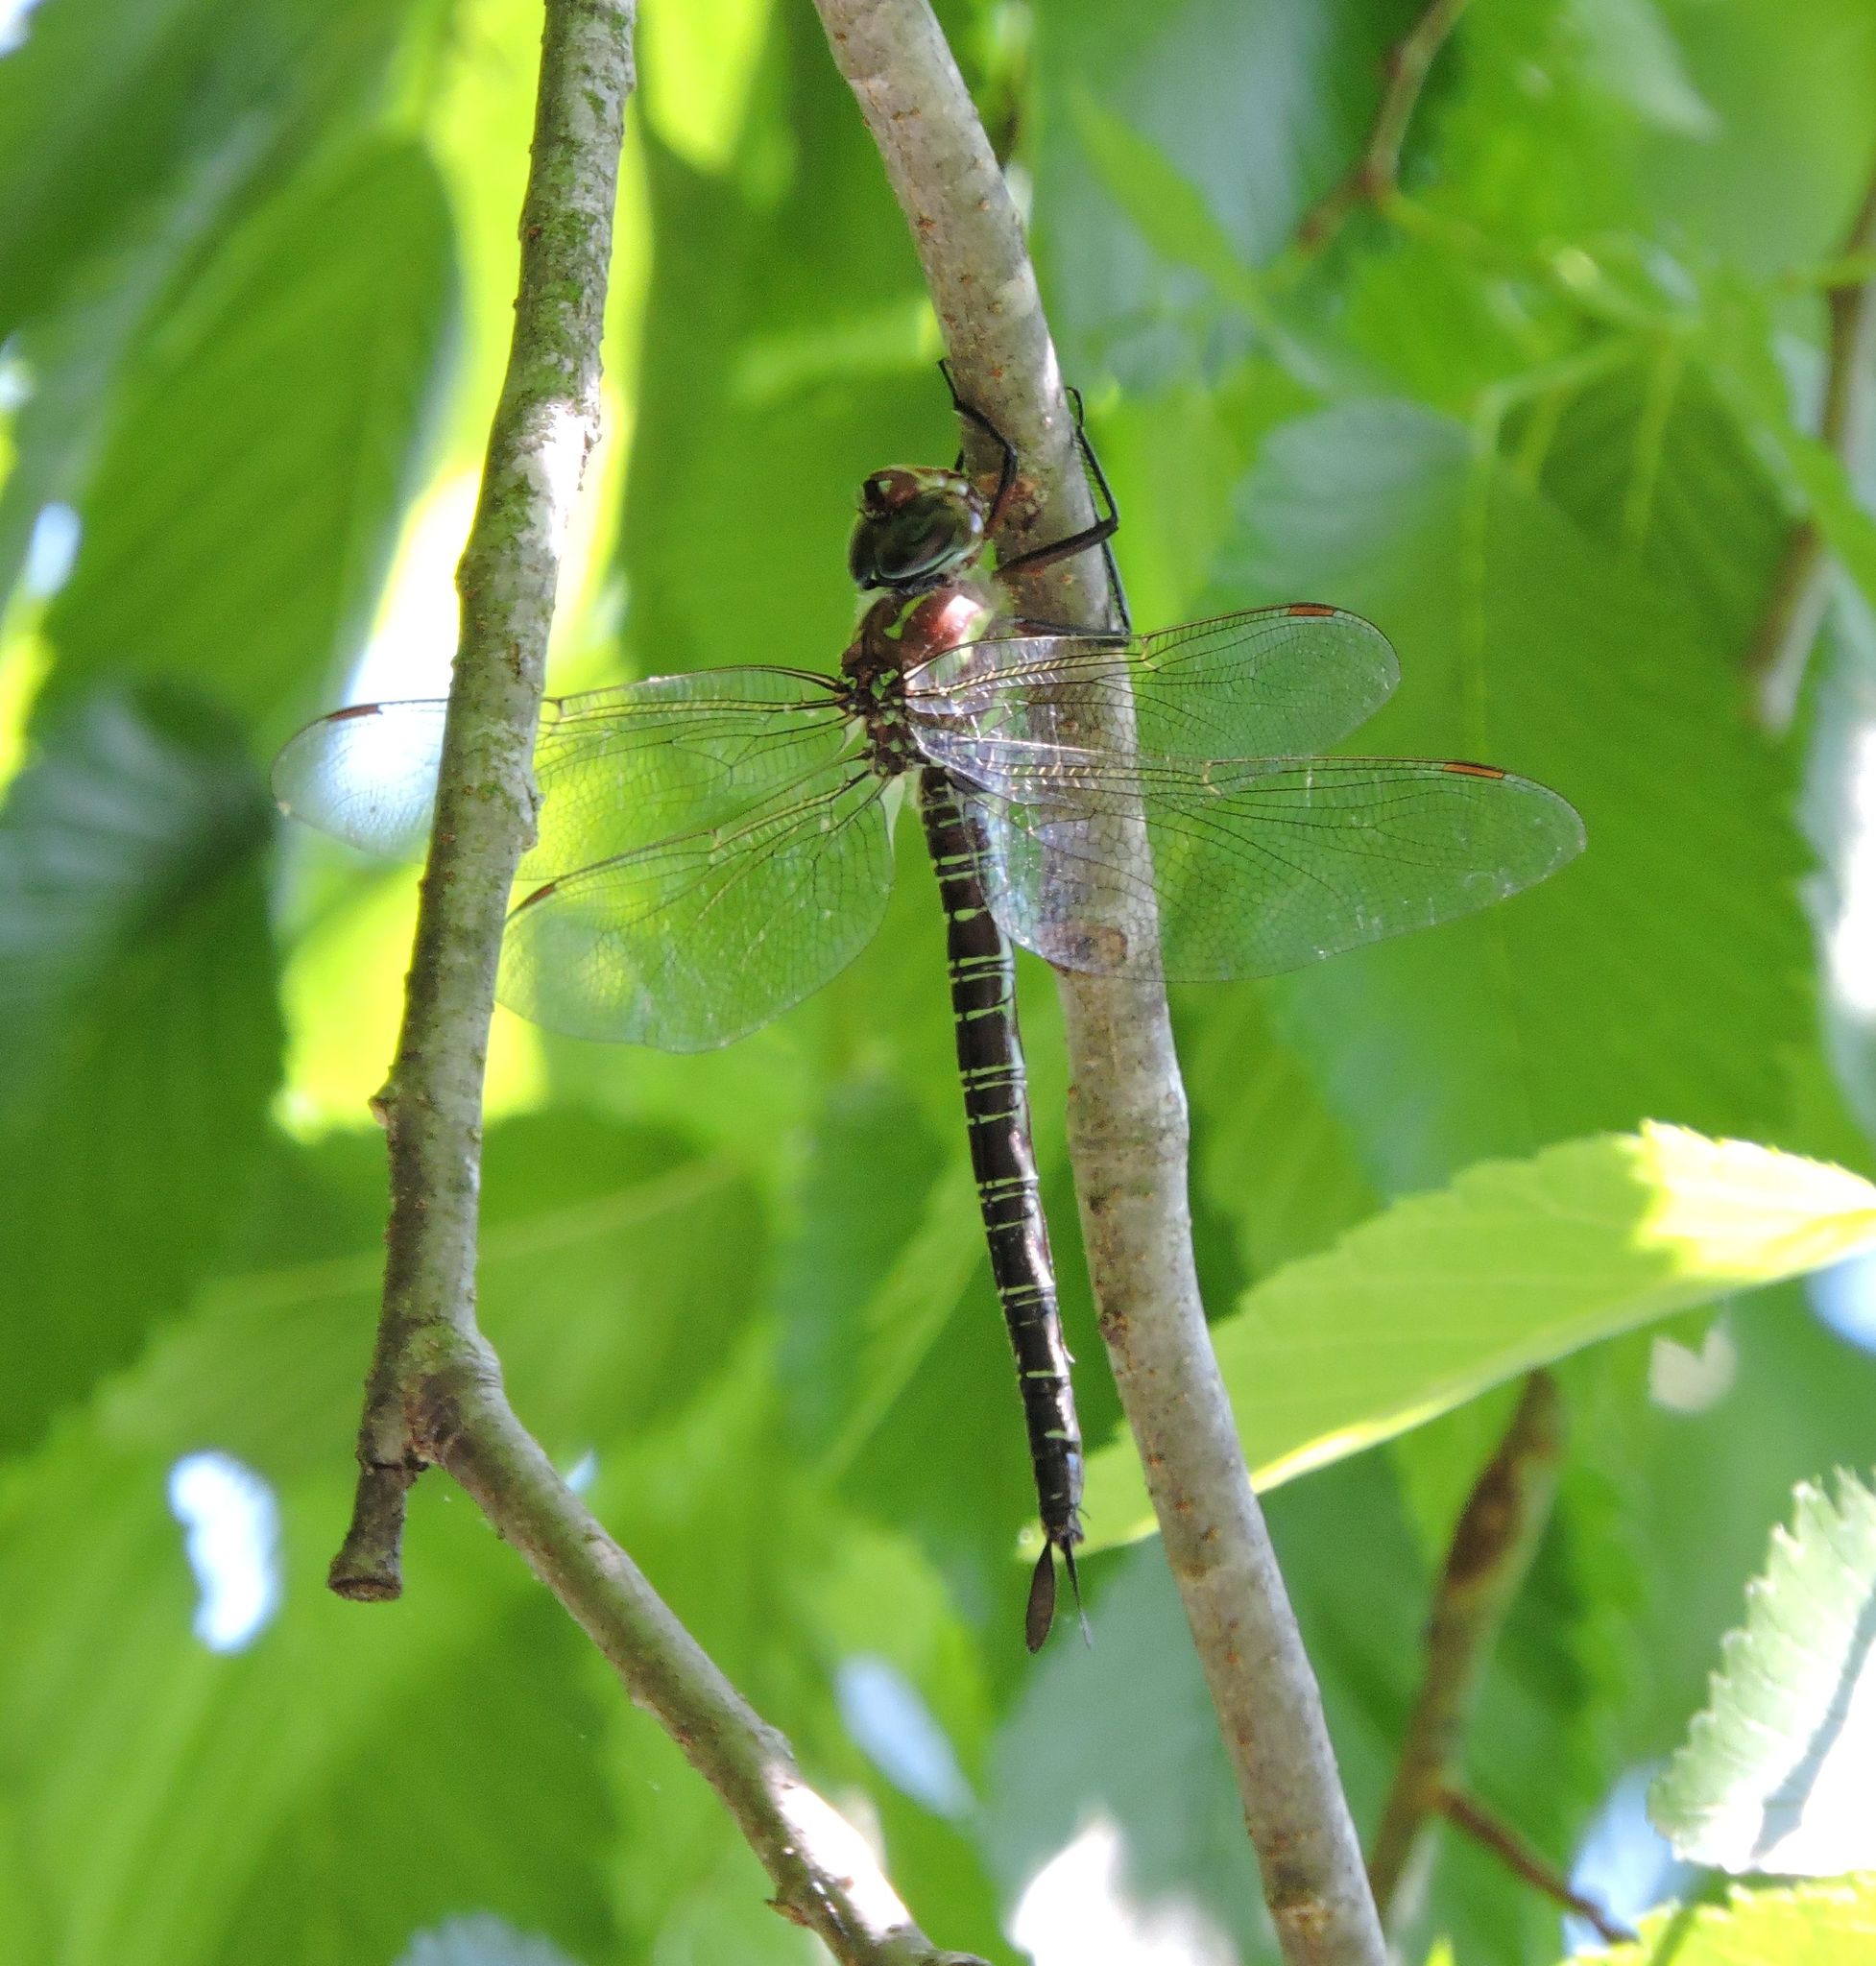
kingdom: Animalia
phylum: Arthropoda
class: Insecta
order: Odonata
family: Aeshnidae
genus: Epiaeschna
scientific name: Epiaeschna heros
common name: Swamp darner
